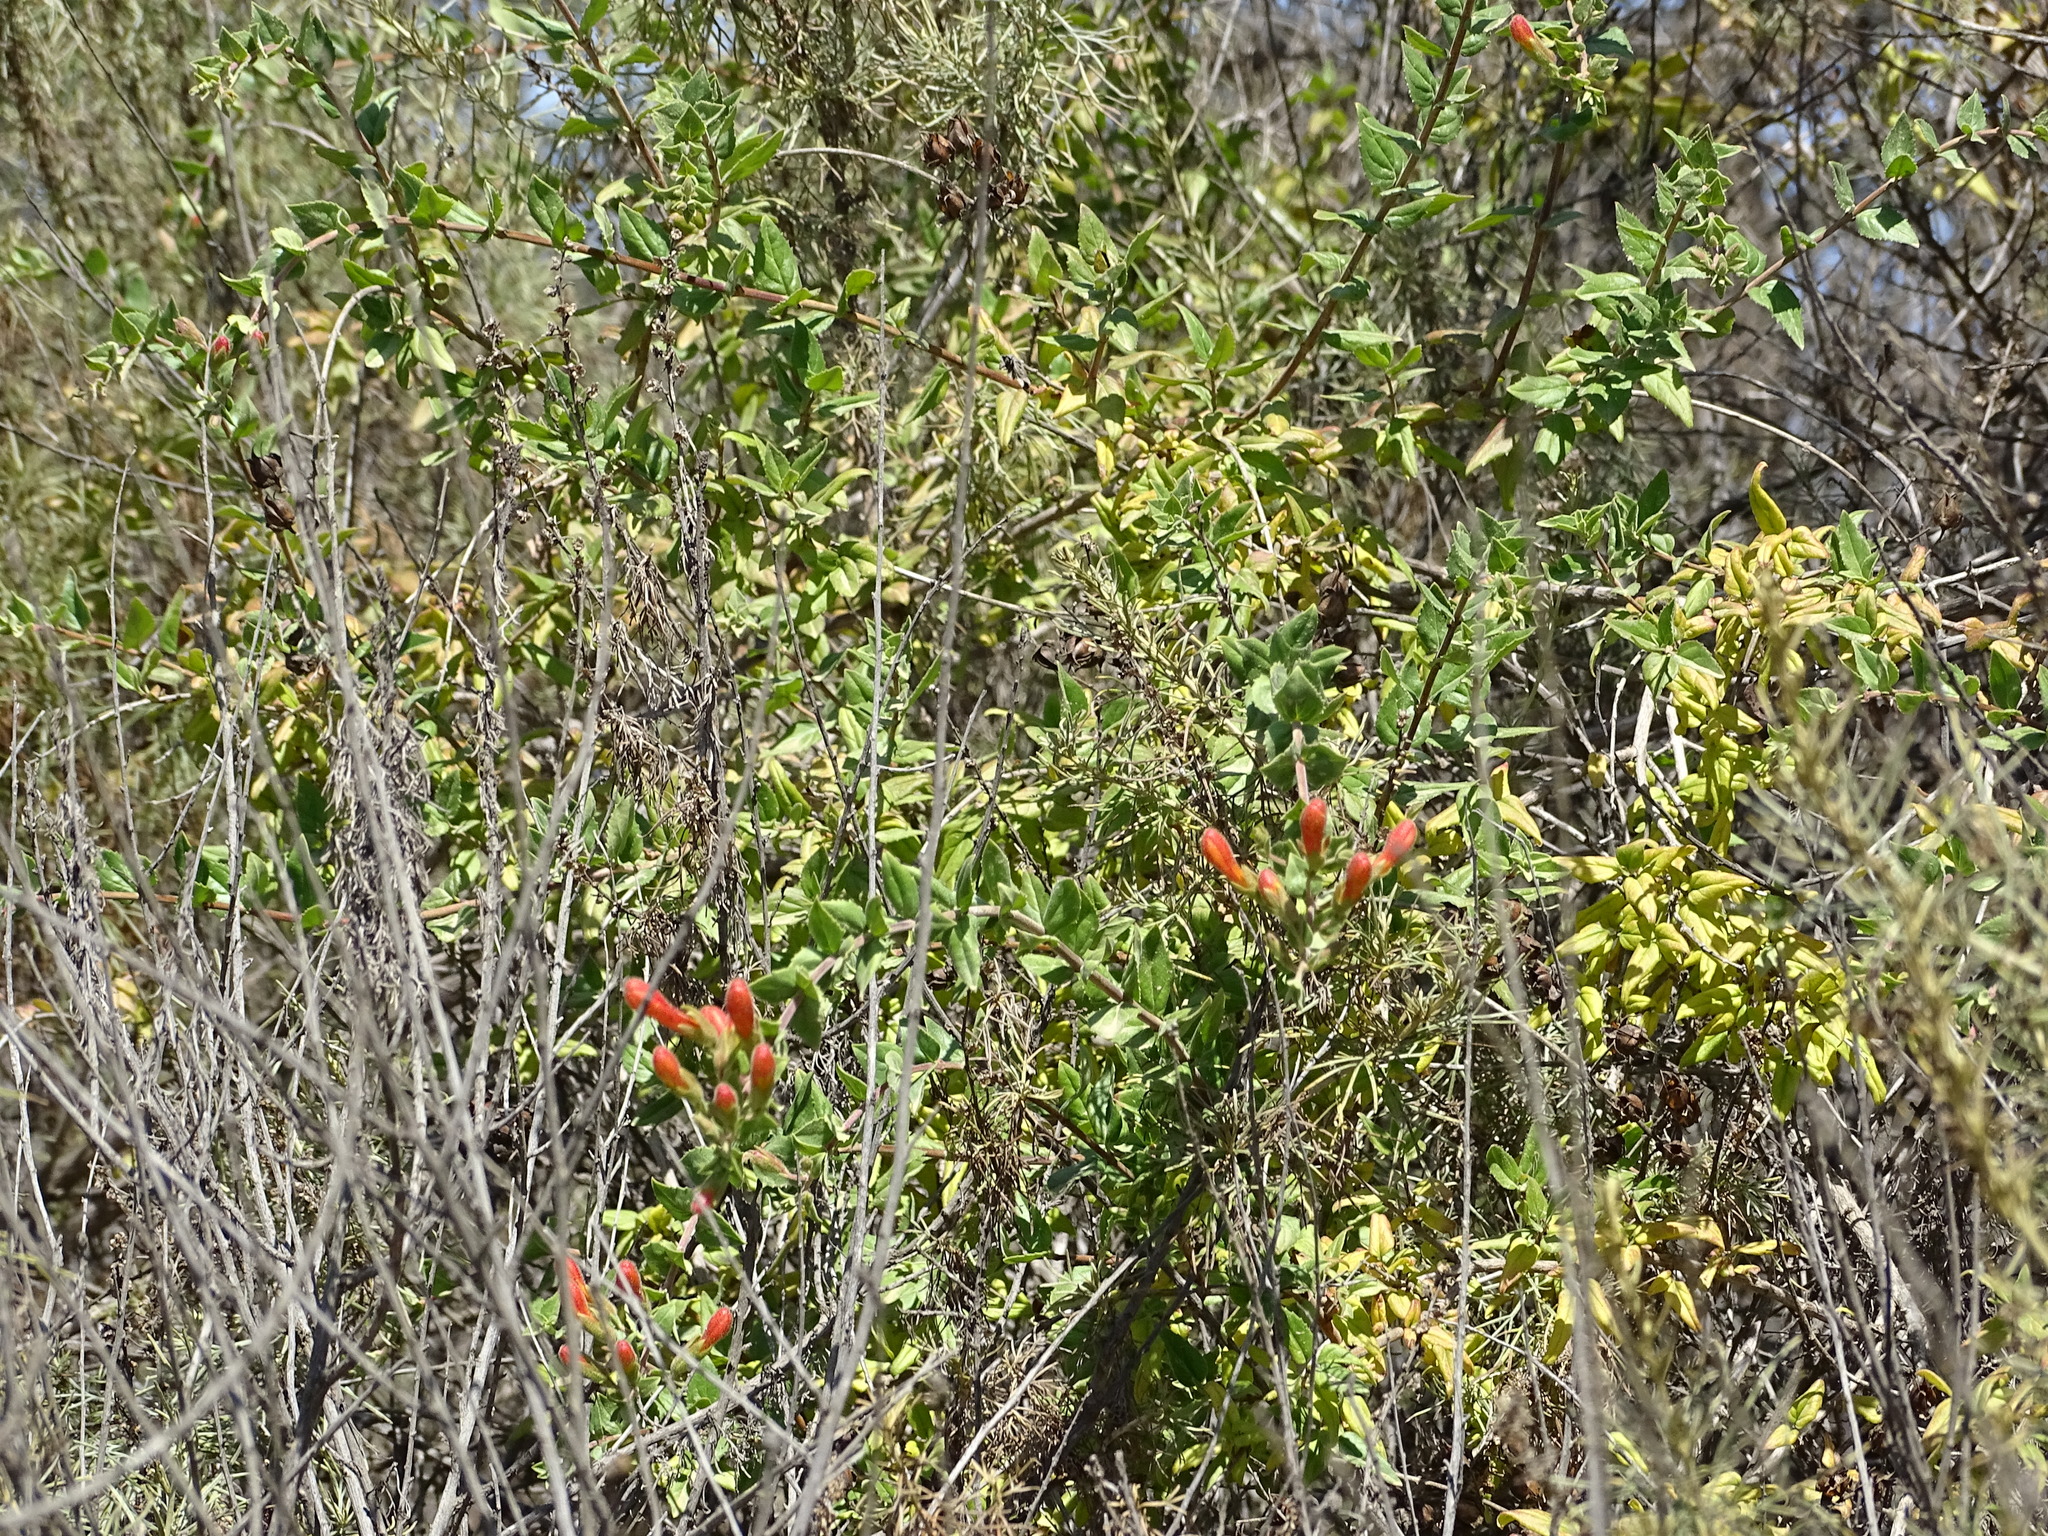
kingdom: Plantae
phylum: Tracheophyta
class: Magnoliopsida
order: Lamiales
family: Plantaginaceae
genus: Keckiella
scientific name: Keckiella cordifolia
